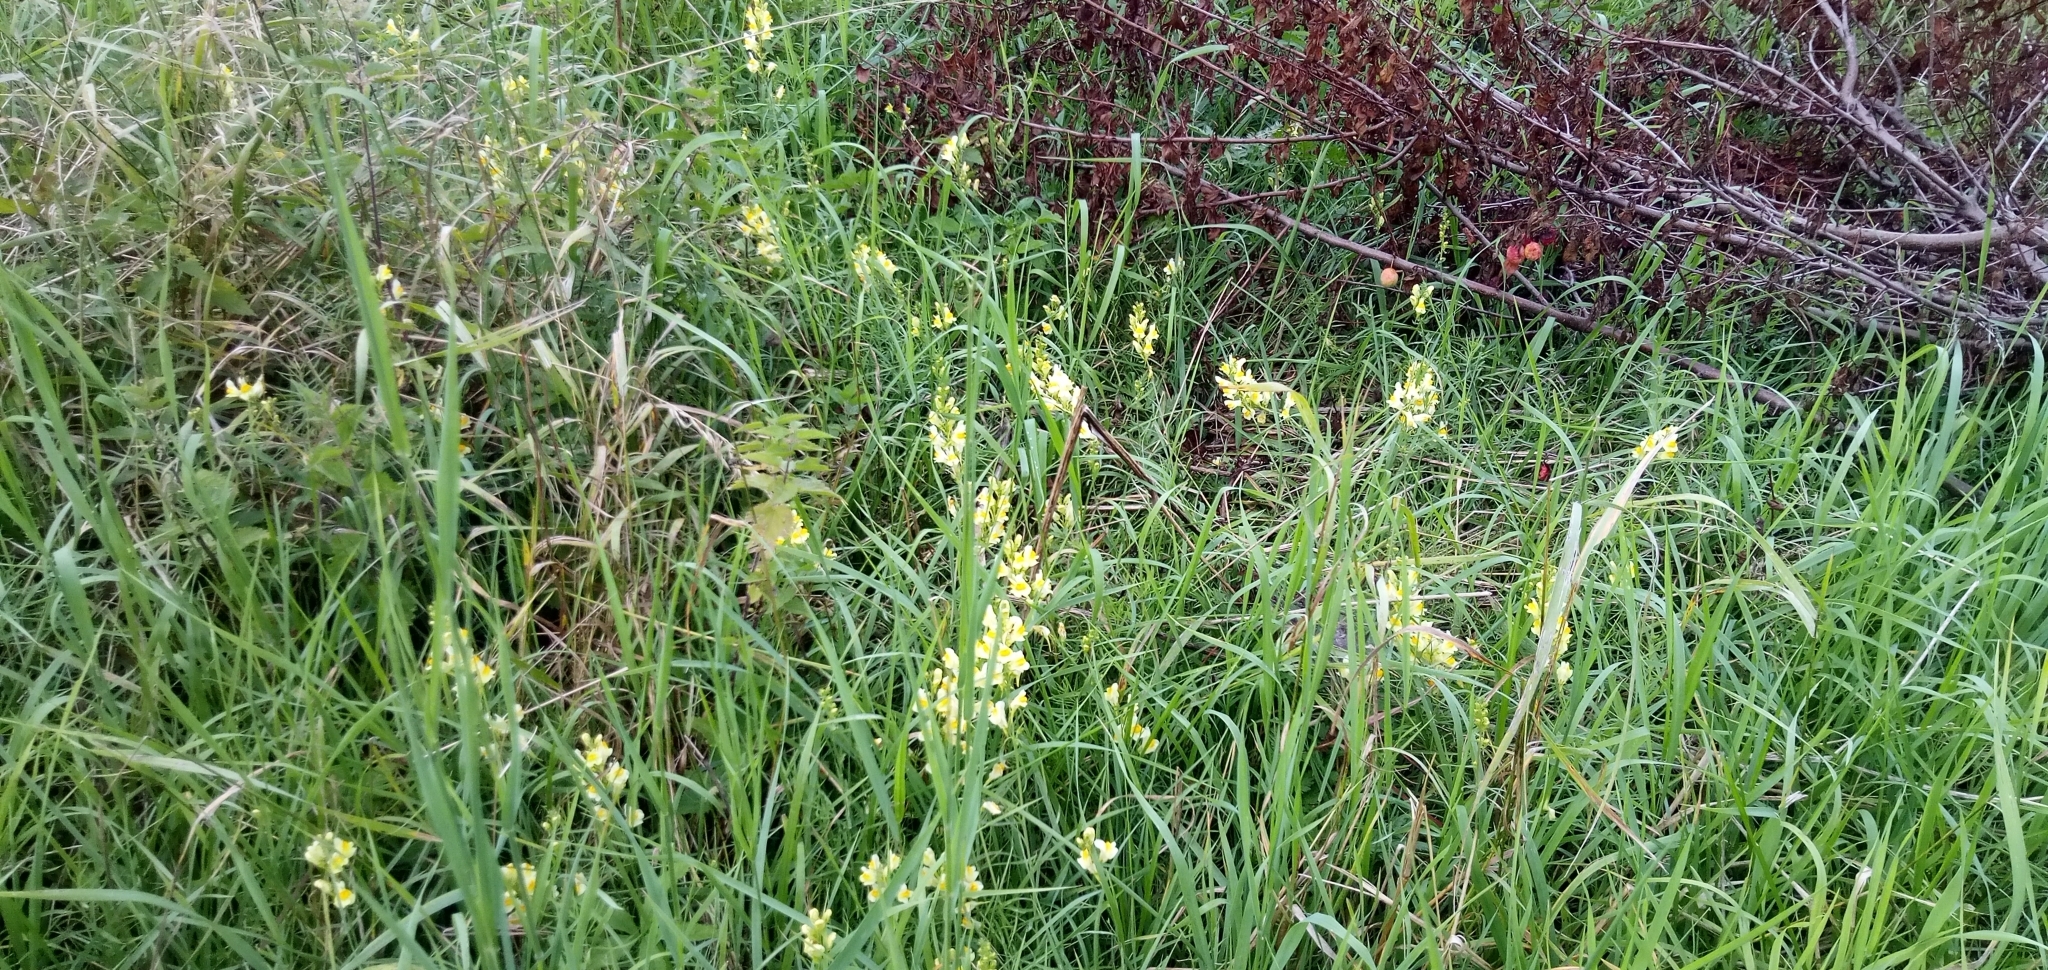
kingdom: Plantae
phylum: Tracheophyta
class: Magnoliopsida
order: Lamiales
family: Plantaginaceae
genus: Linaria
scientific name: Linaria vulgaris
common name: Butter and eggs
